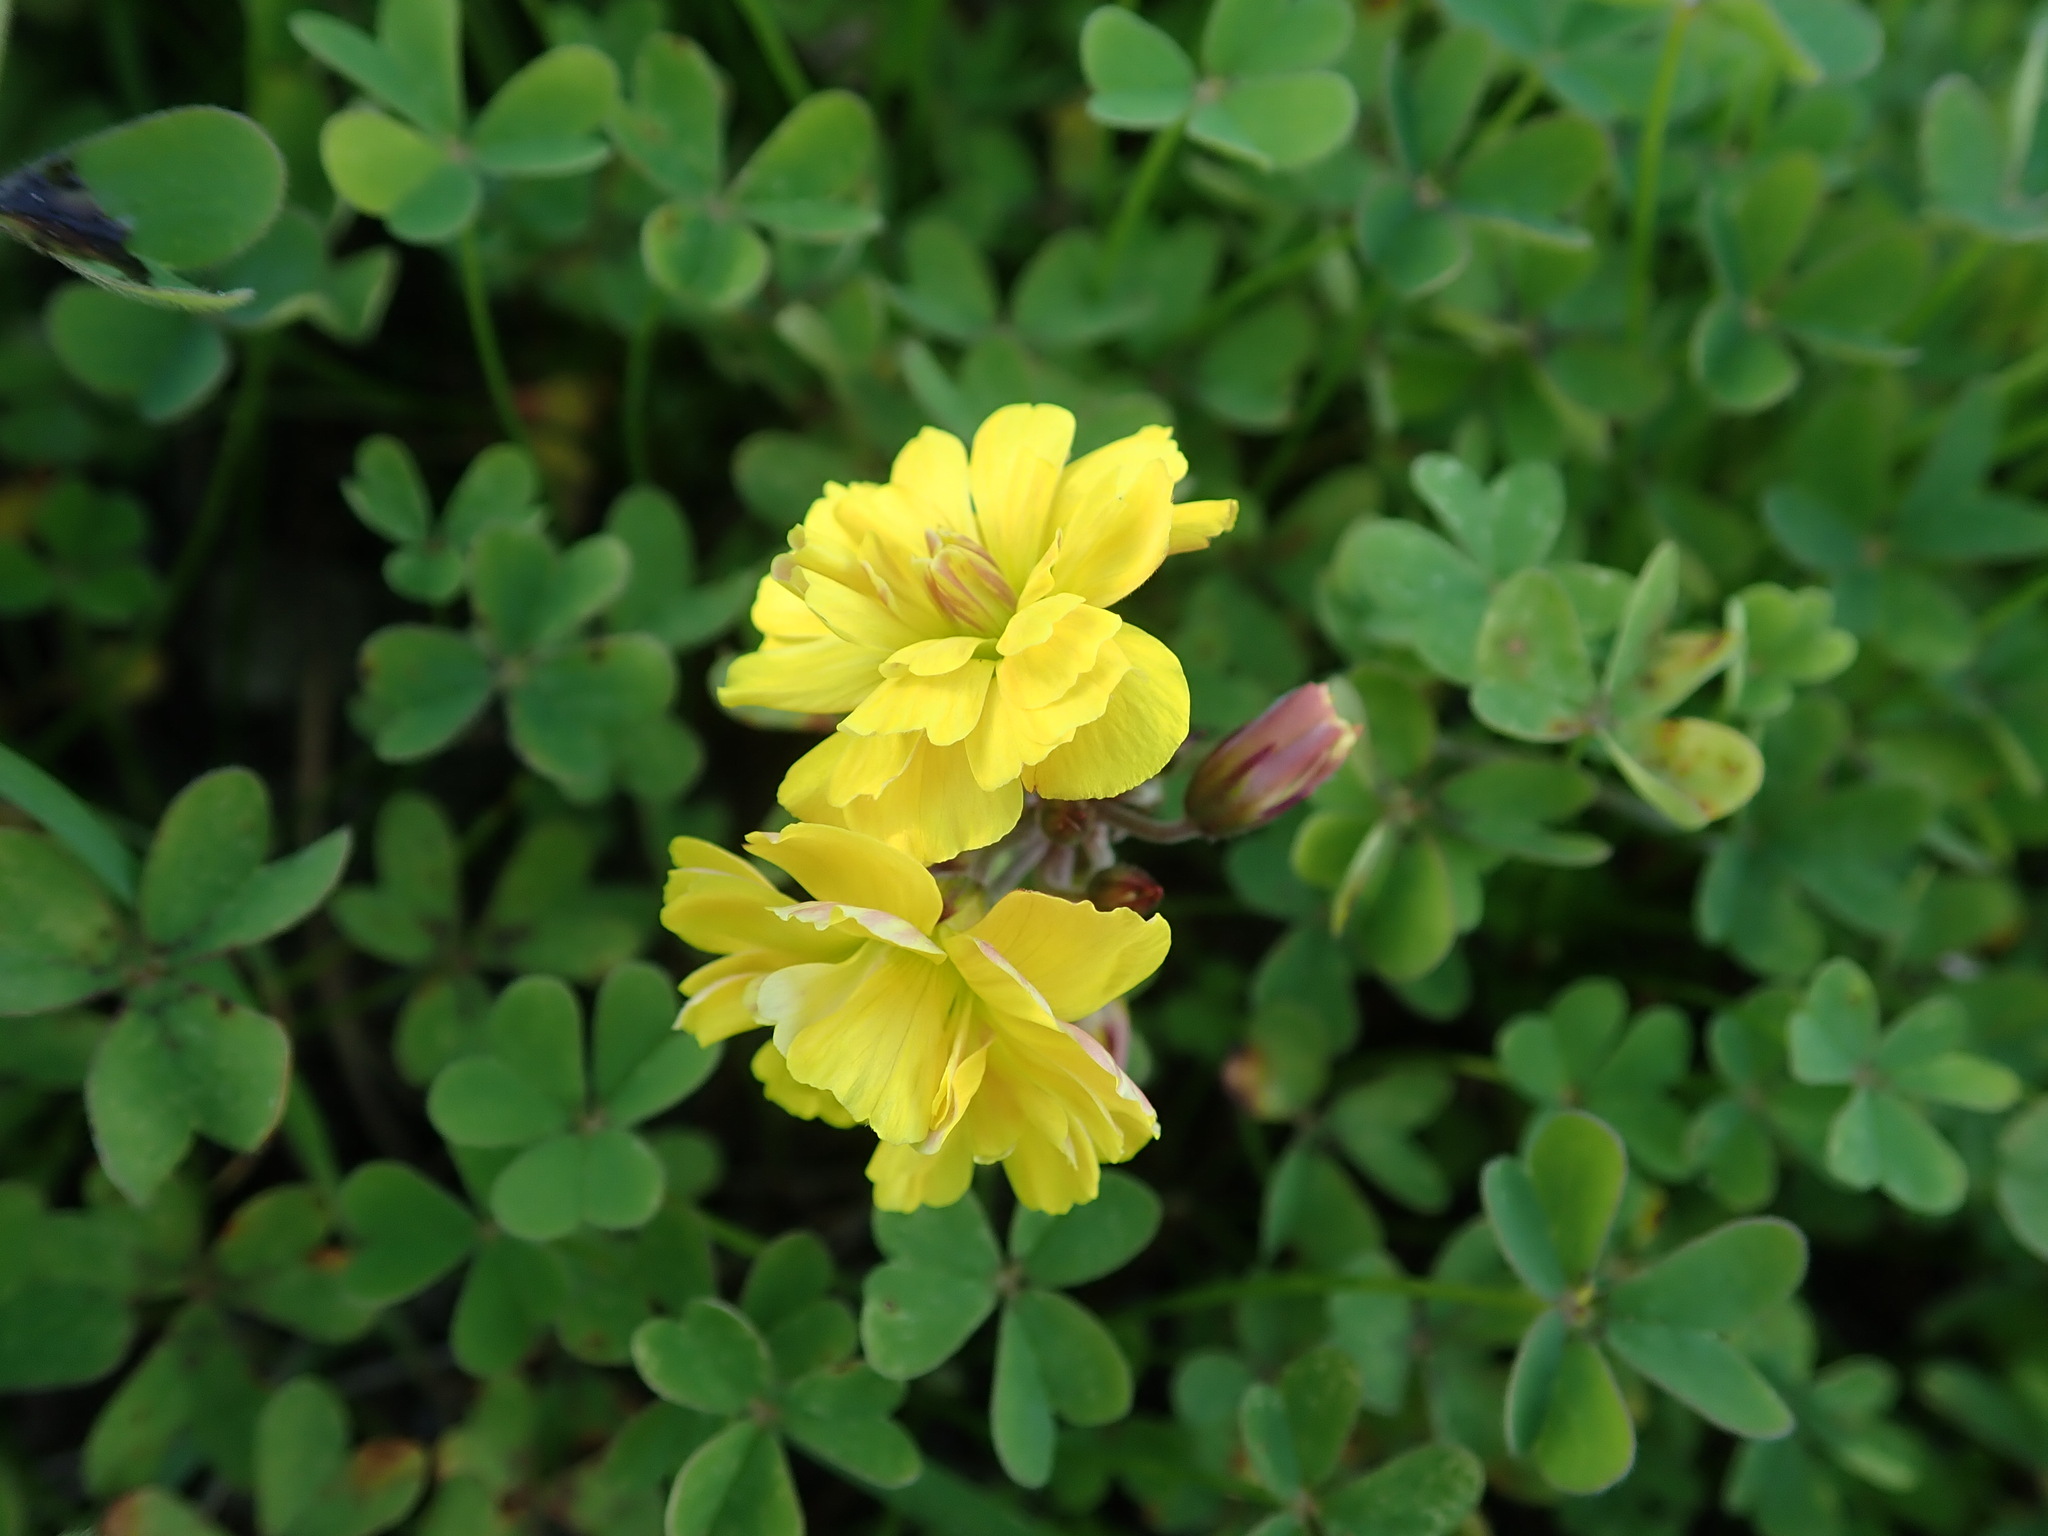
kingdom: Plantae
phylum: Tracheophyta
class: Magnoliopsida
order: Oxalidales
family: Oxalidaceae
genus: Oxalis
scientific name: Oxalis pes-caprae
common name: Bermuda-buttercup
